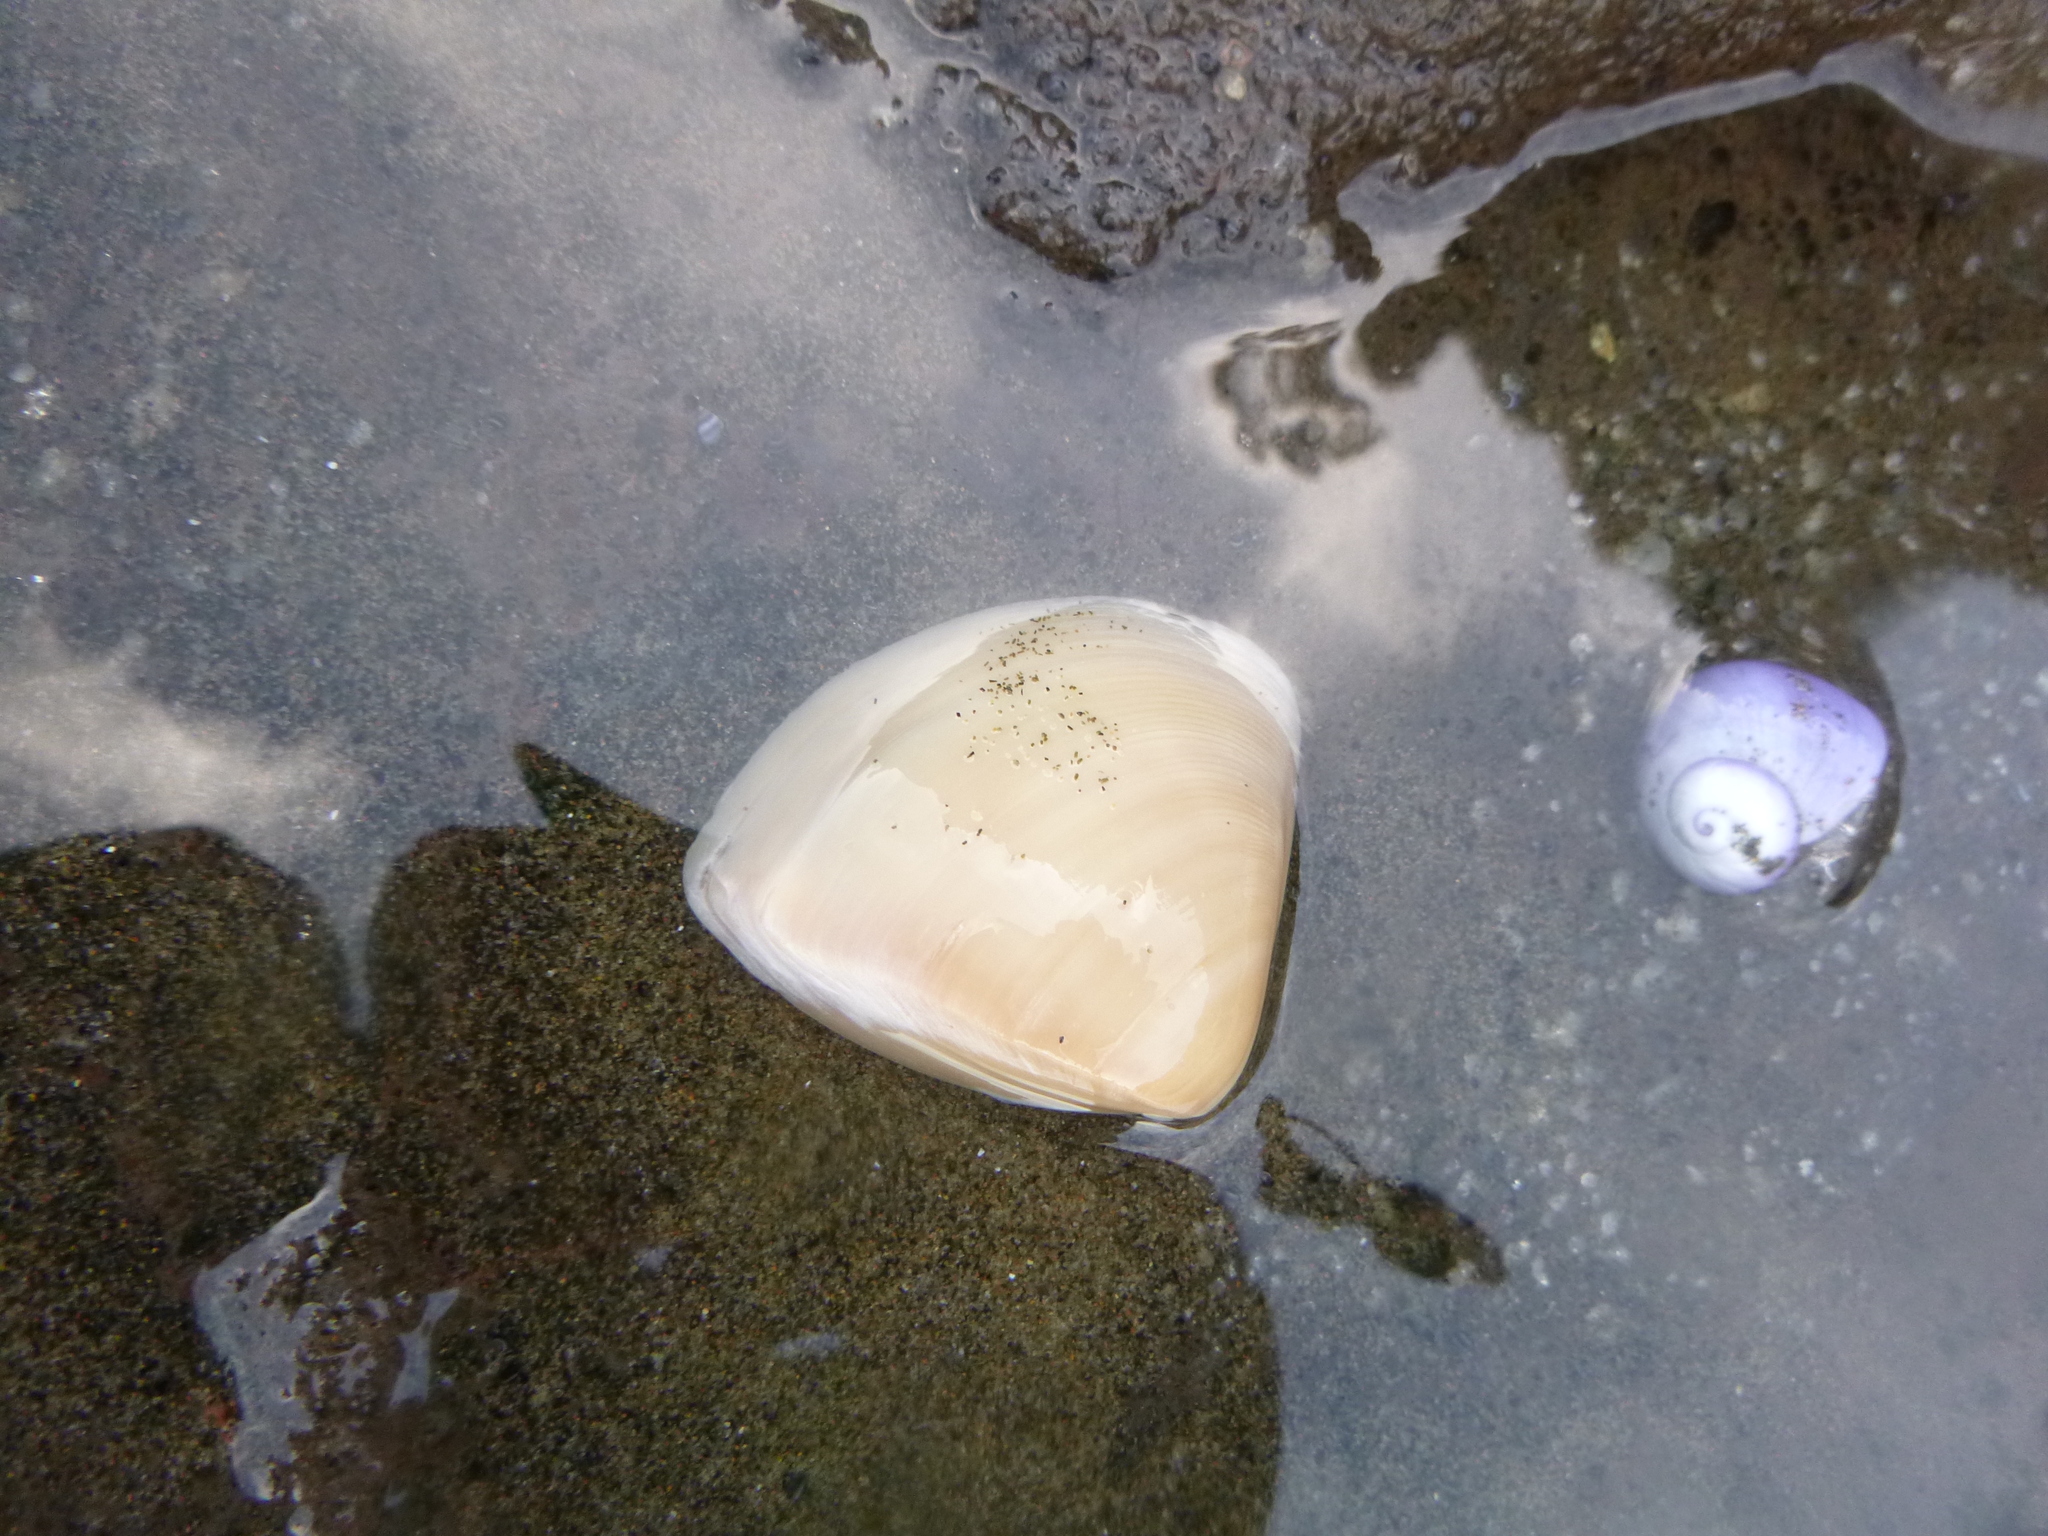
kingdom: Animalia
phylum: Mollusca
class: Bivalvia
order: Venerida
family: Mactridae
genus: Crassula
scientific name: Crassula aequilatera
